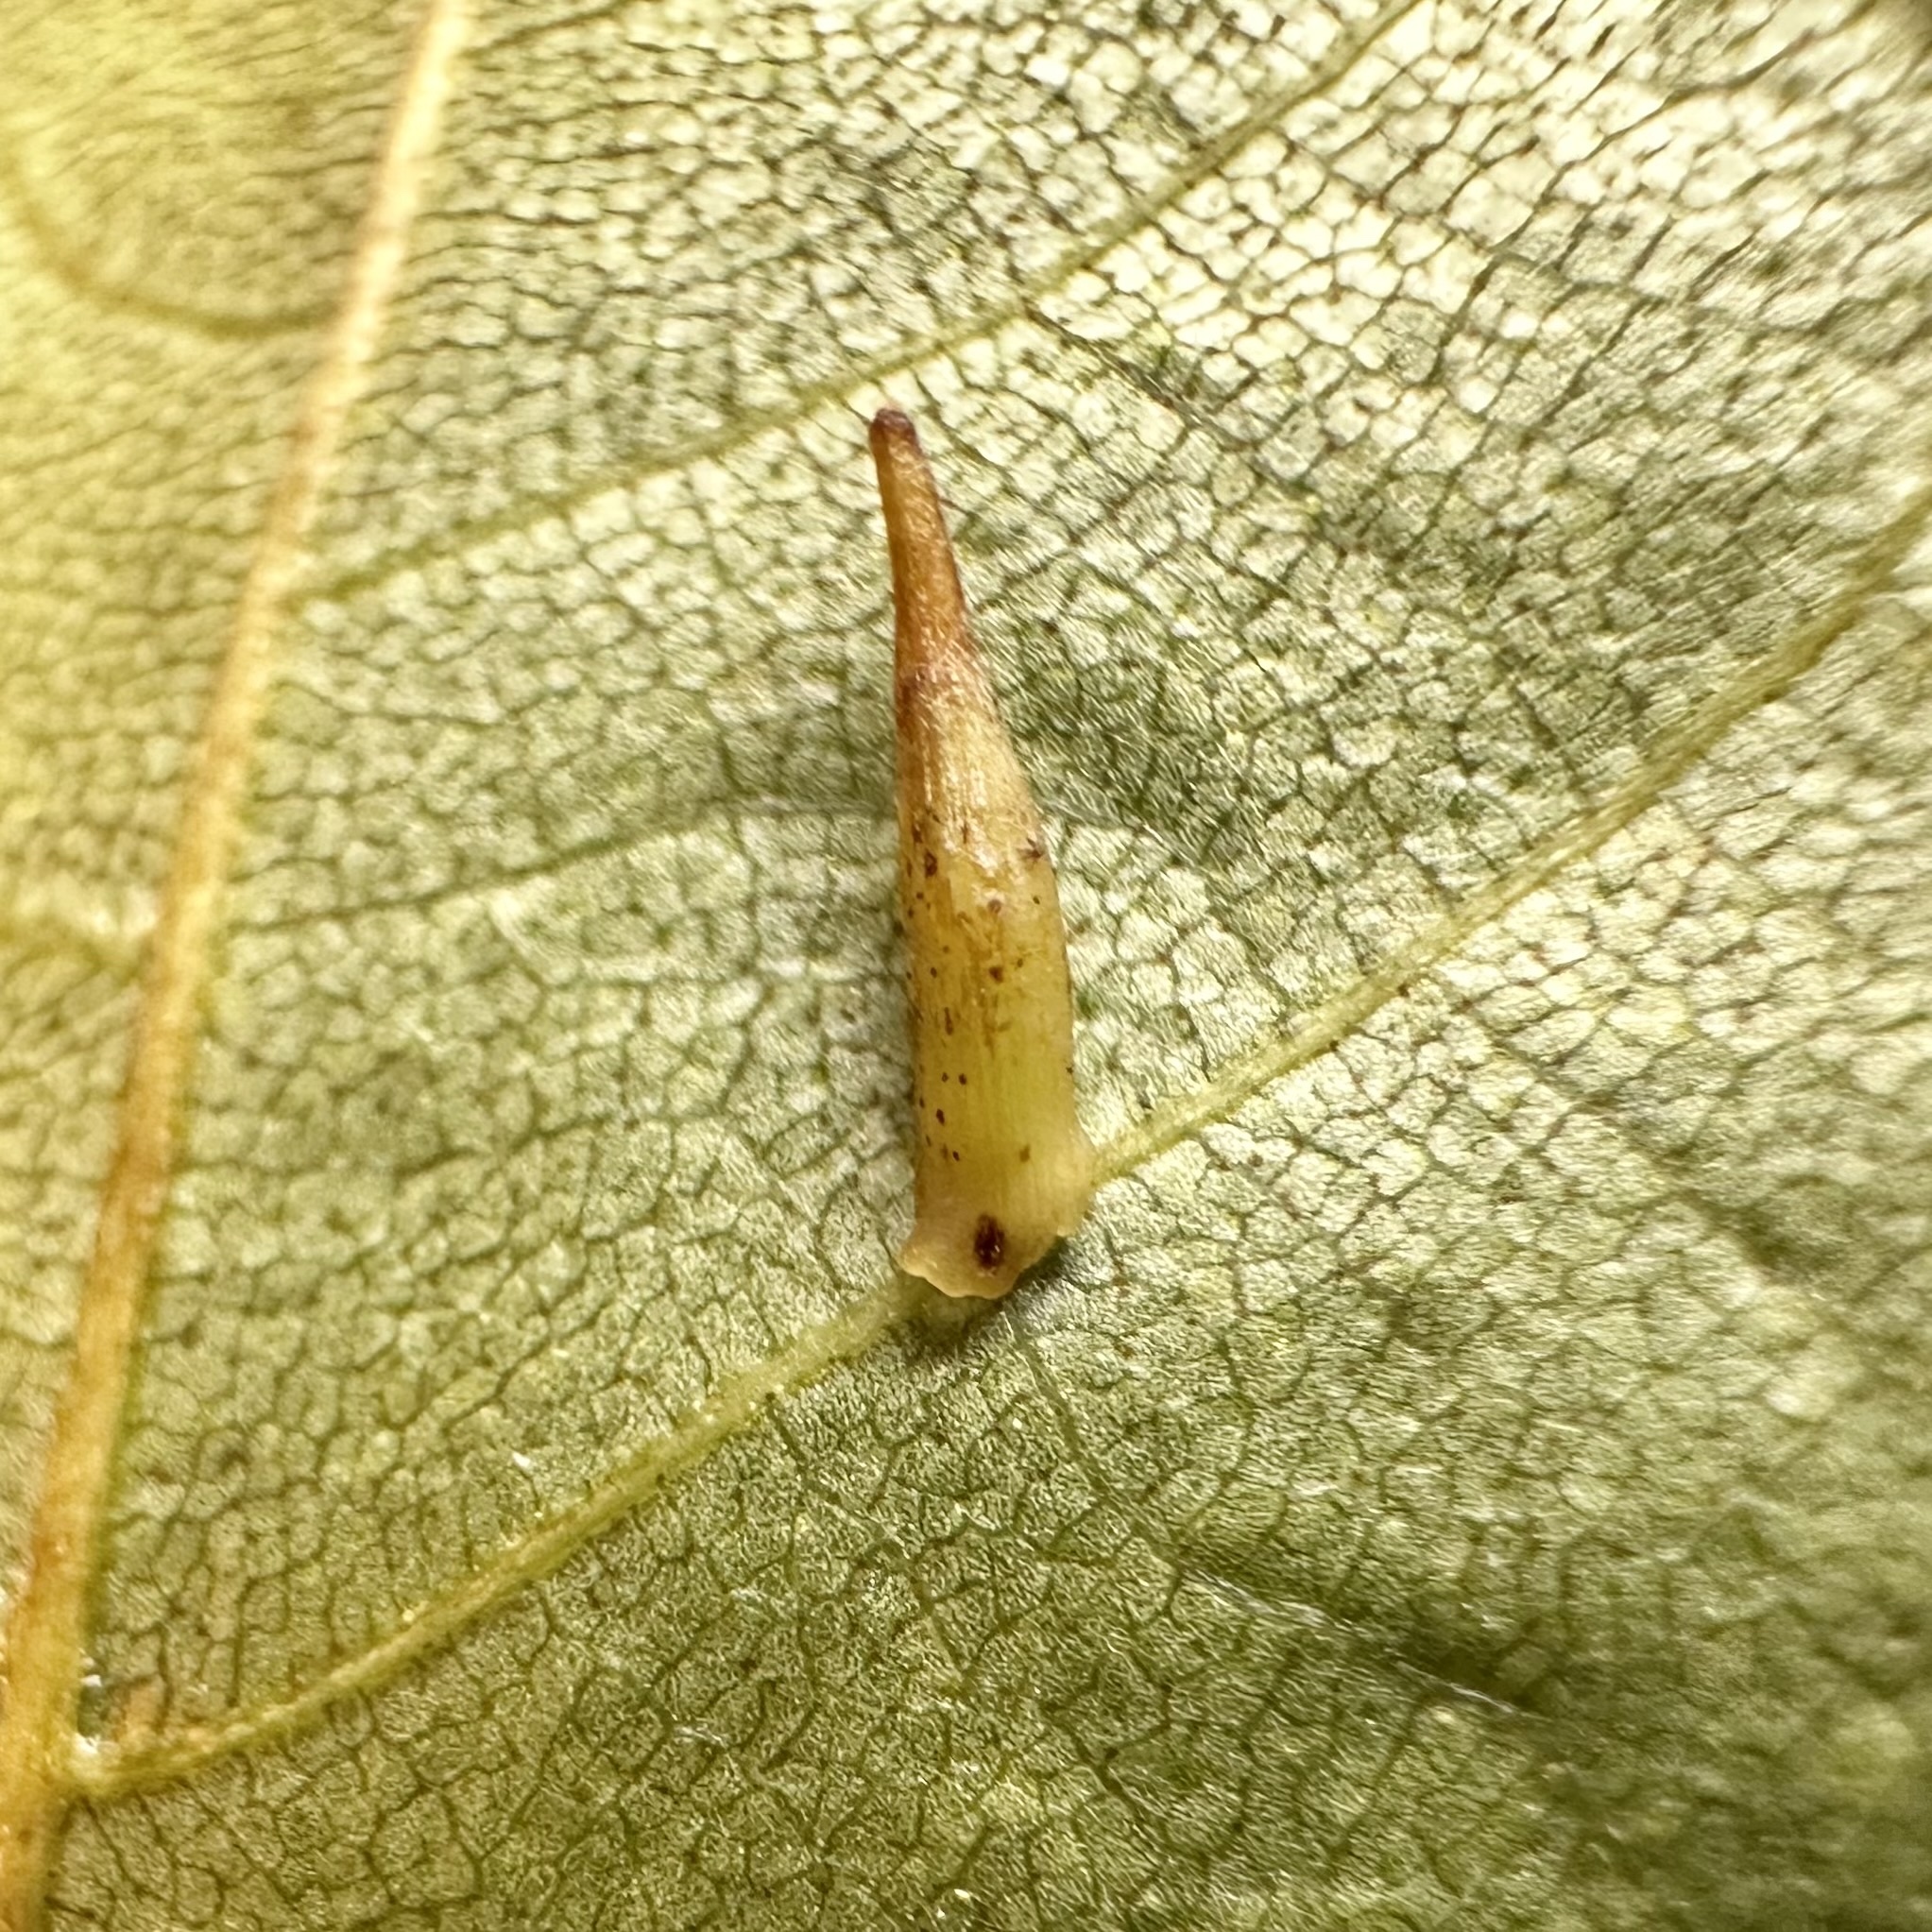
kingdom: Animalia
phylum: Arthropoda
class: Insecta
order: Diptera
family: Cecidomyiidae
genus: Caryomyia
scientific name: Caryomyia
